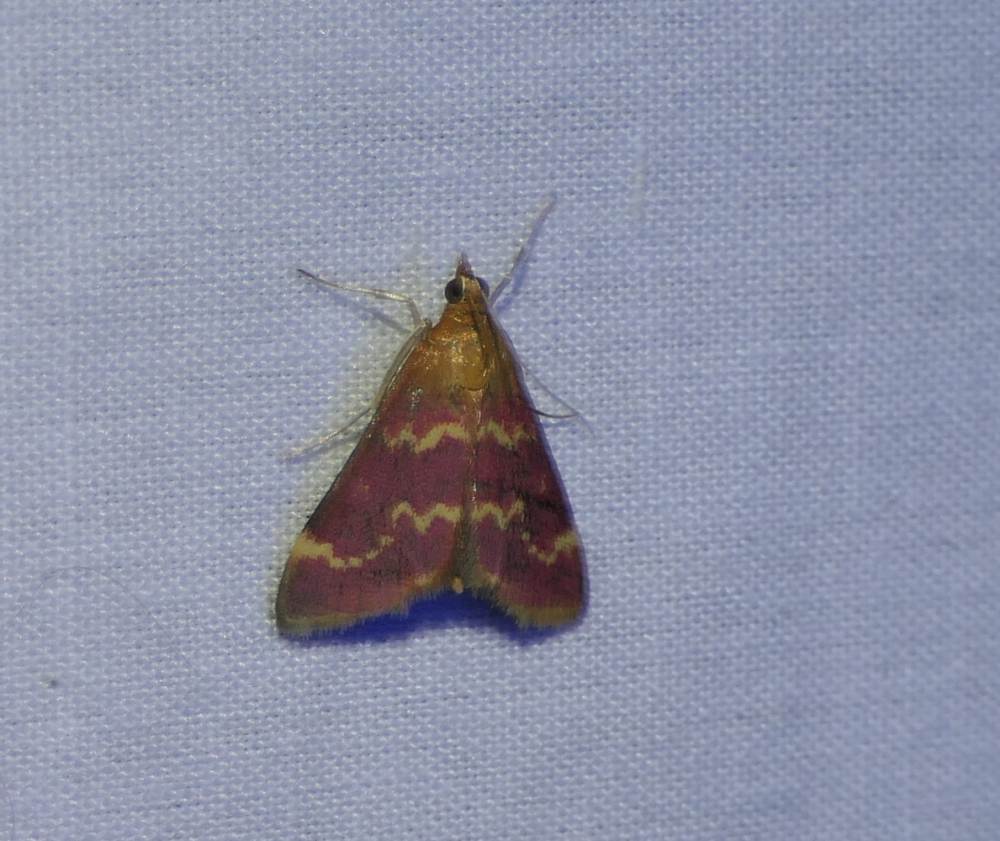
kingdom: Animalia
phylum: Arthropoda
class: Insecta
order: Lepidoptera
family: Crambidae
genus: Pyrausta
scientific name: Pyrausta signatalis
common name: Raspberry pyrausta moth
